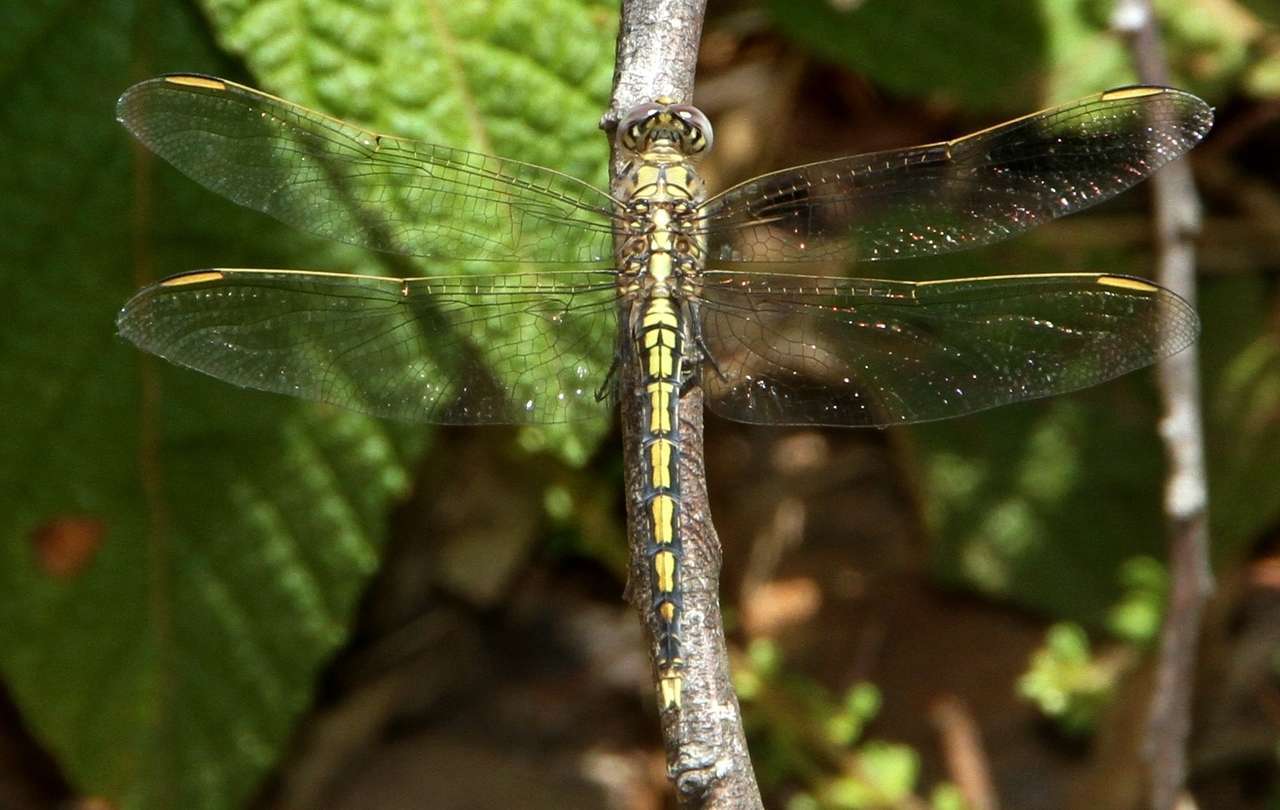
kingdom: Animalia
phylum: Arthropoda
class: Insecta
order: Odonata
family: Libellulidae
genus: Orthetrum
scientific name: Orthetrum caledonicum
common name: Blue skimmer
